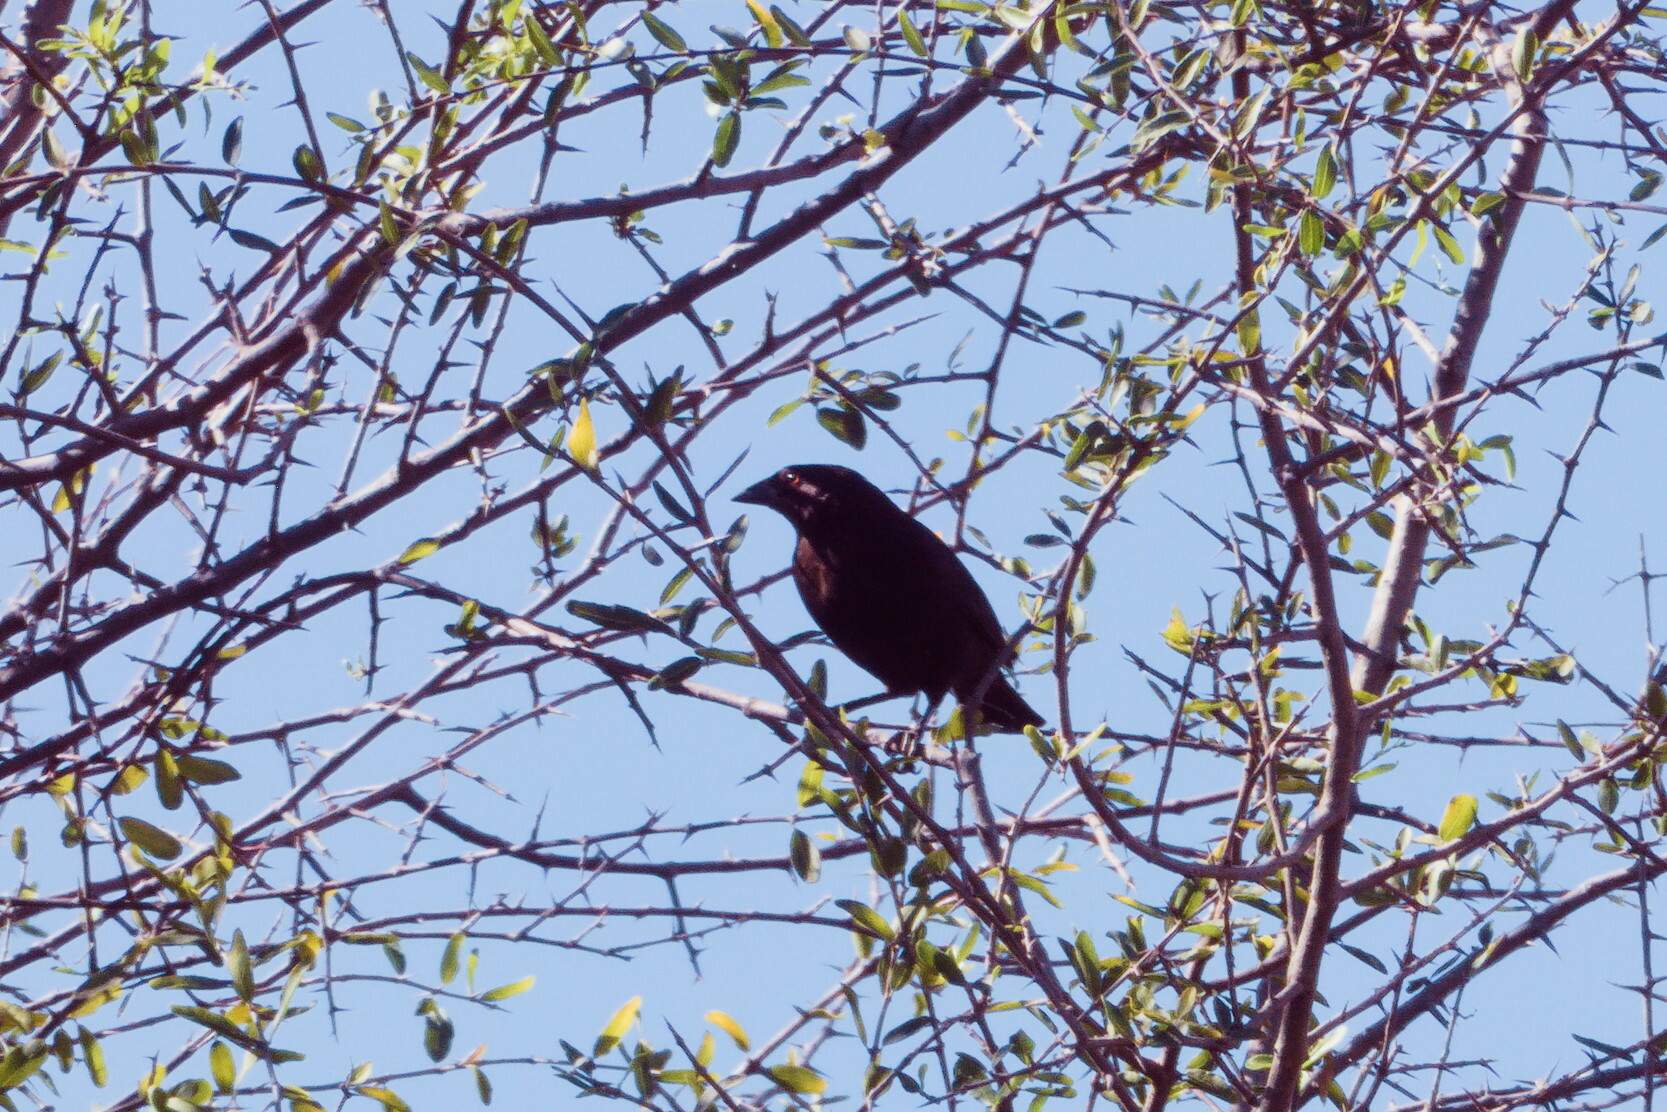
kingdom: Animalia
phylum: Chordata
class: Aves
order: Passeriformes
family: Icteridae
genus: Molothrus
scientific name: Molothrus aeneus
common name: Bronzed cowbird
